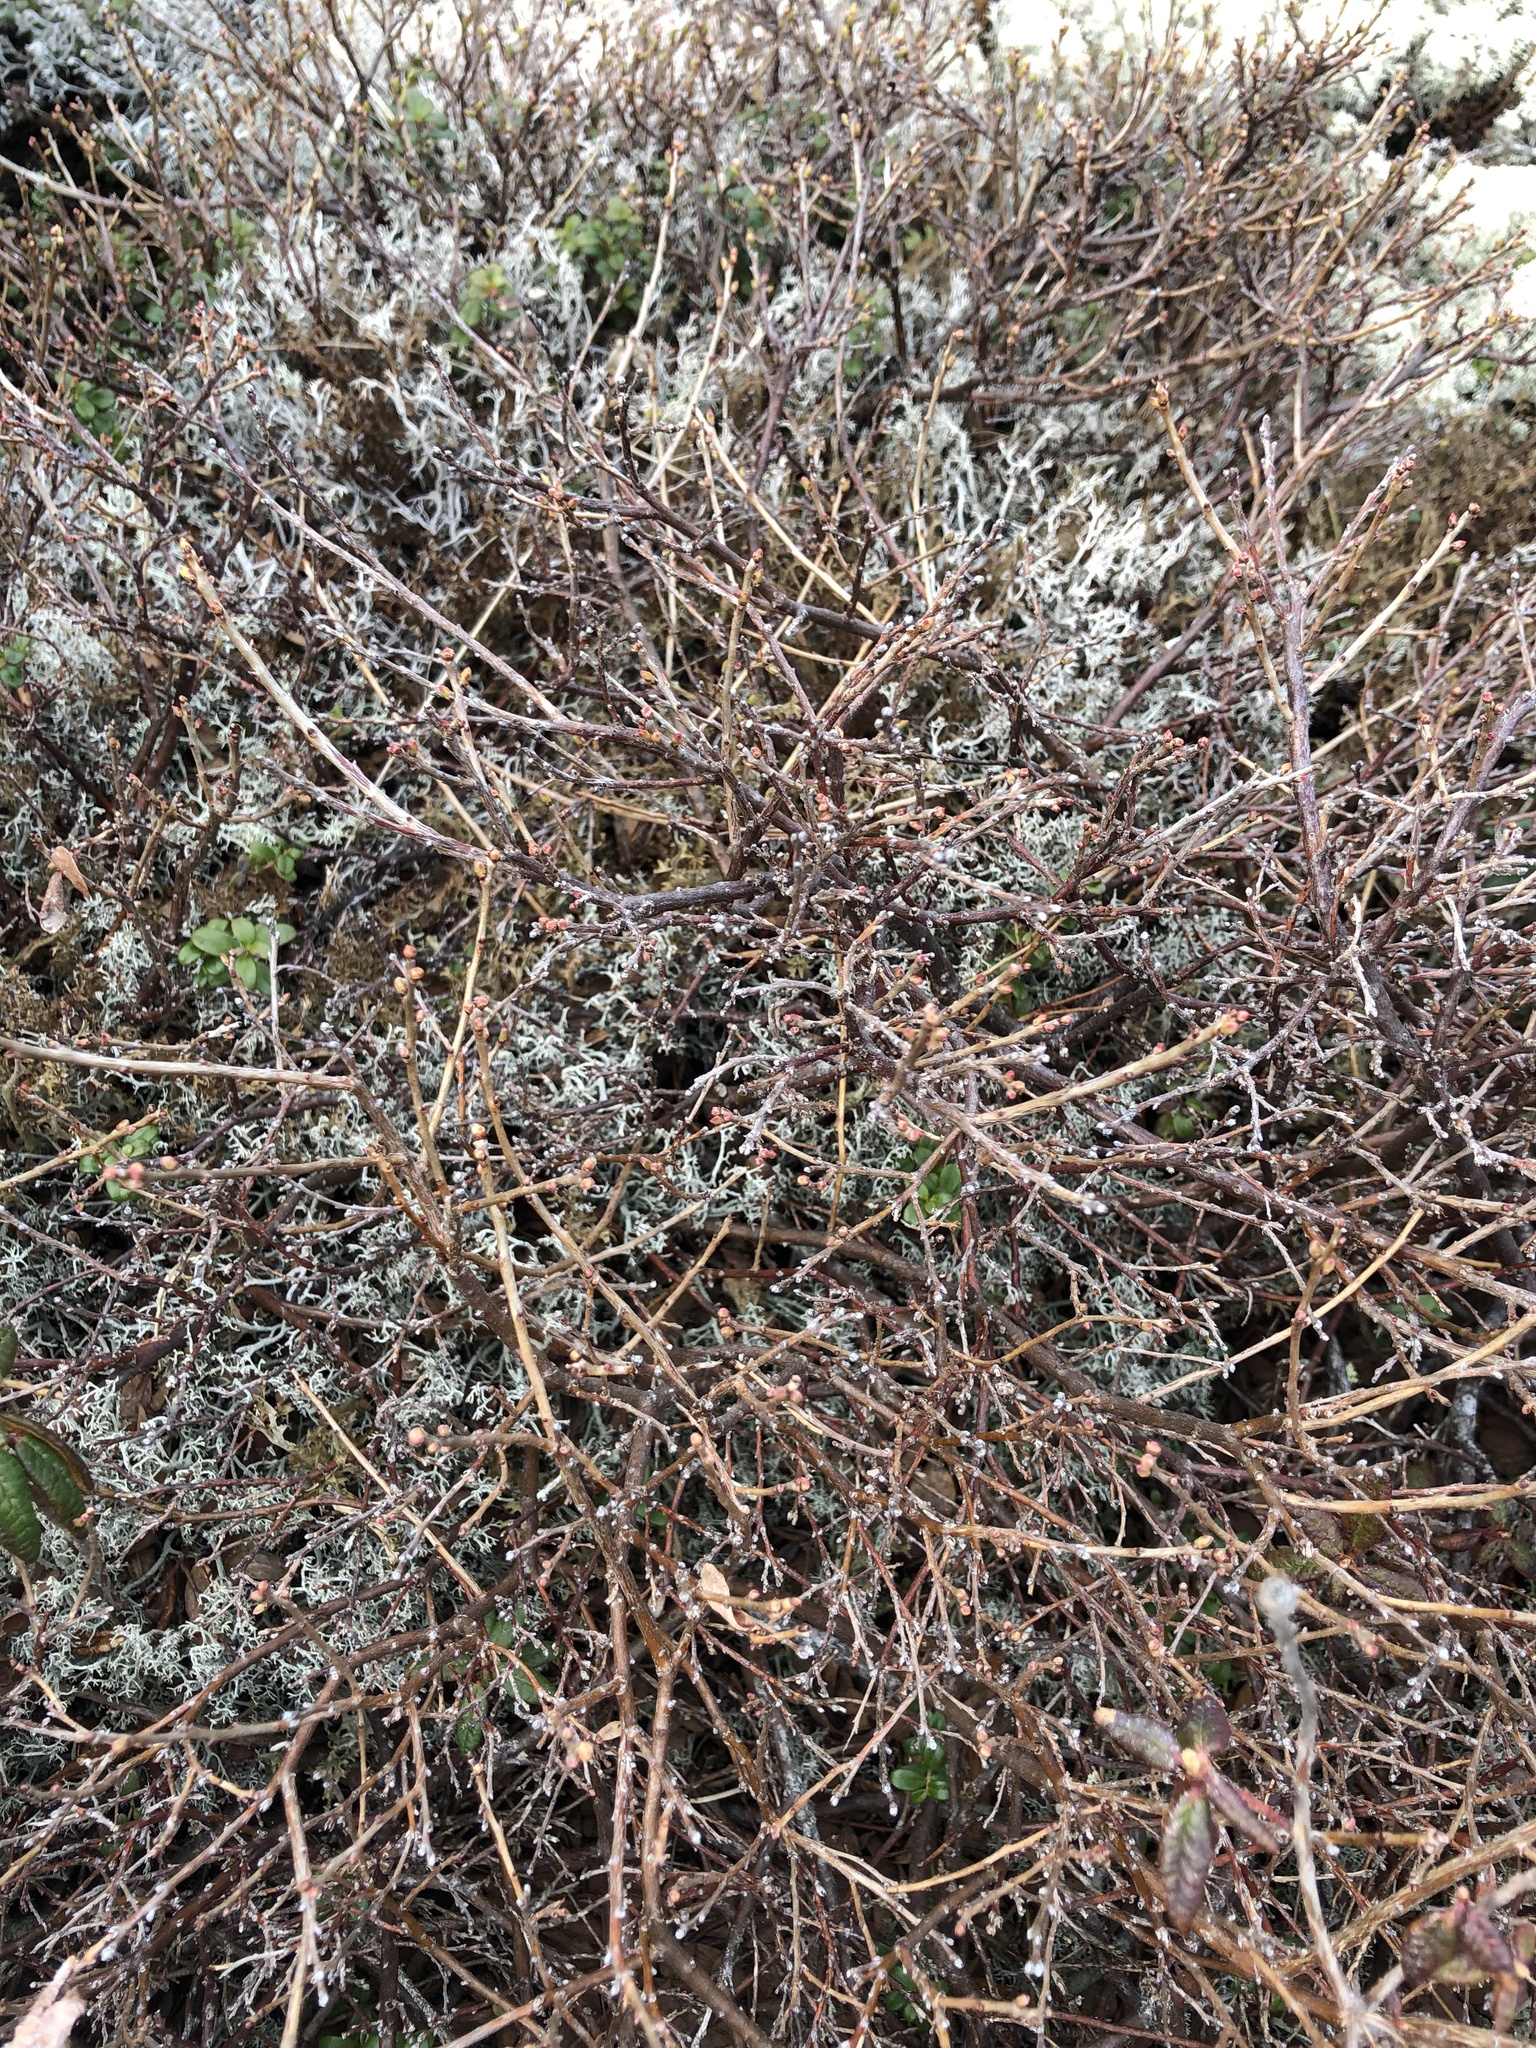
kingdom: Plantae
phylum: Tracheophyta
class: Magnoliopsida
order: Ericales
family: Ericaceae
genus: Vaccinium
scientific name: Vaccinium uliginosum
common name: Bog bilberry
